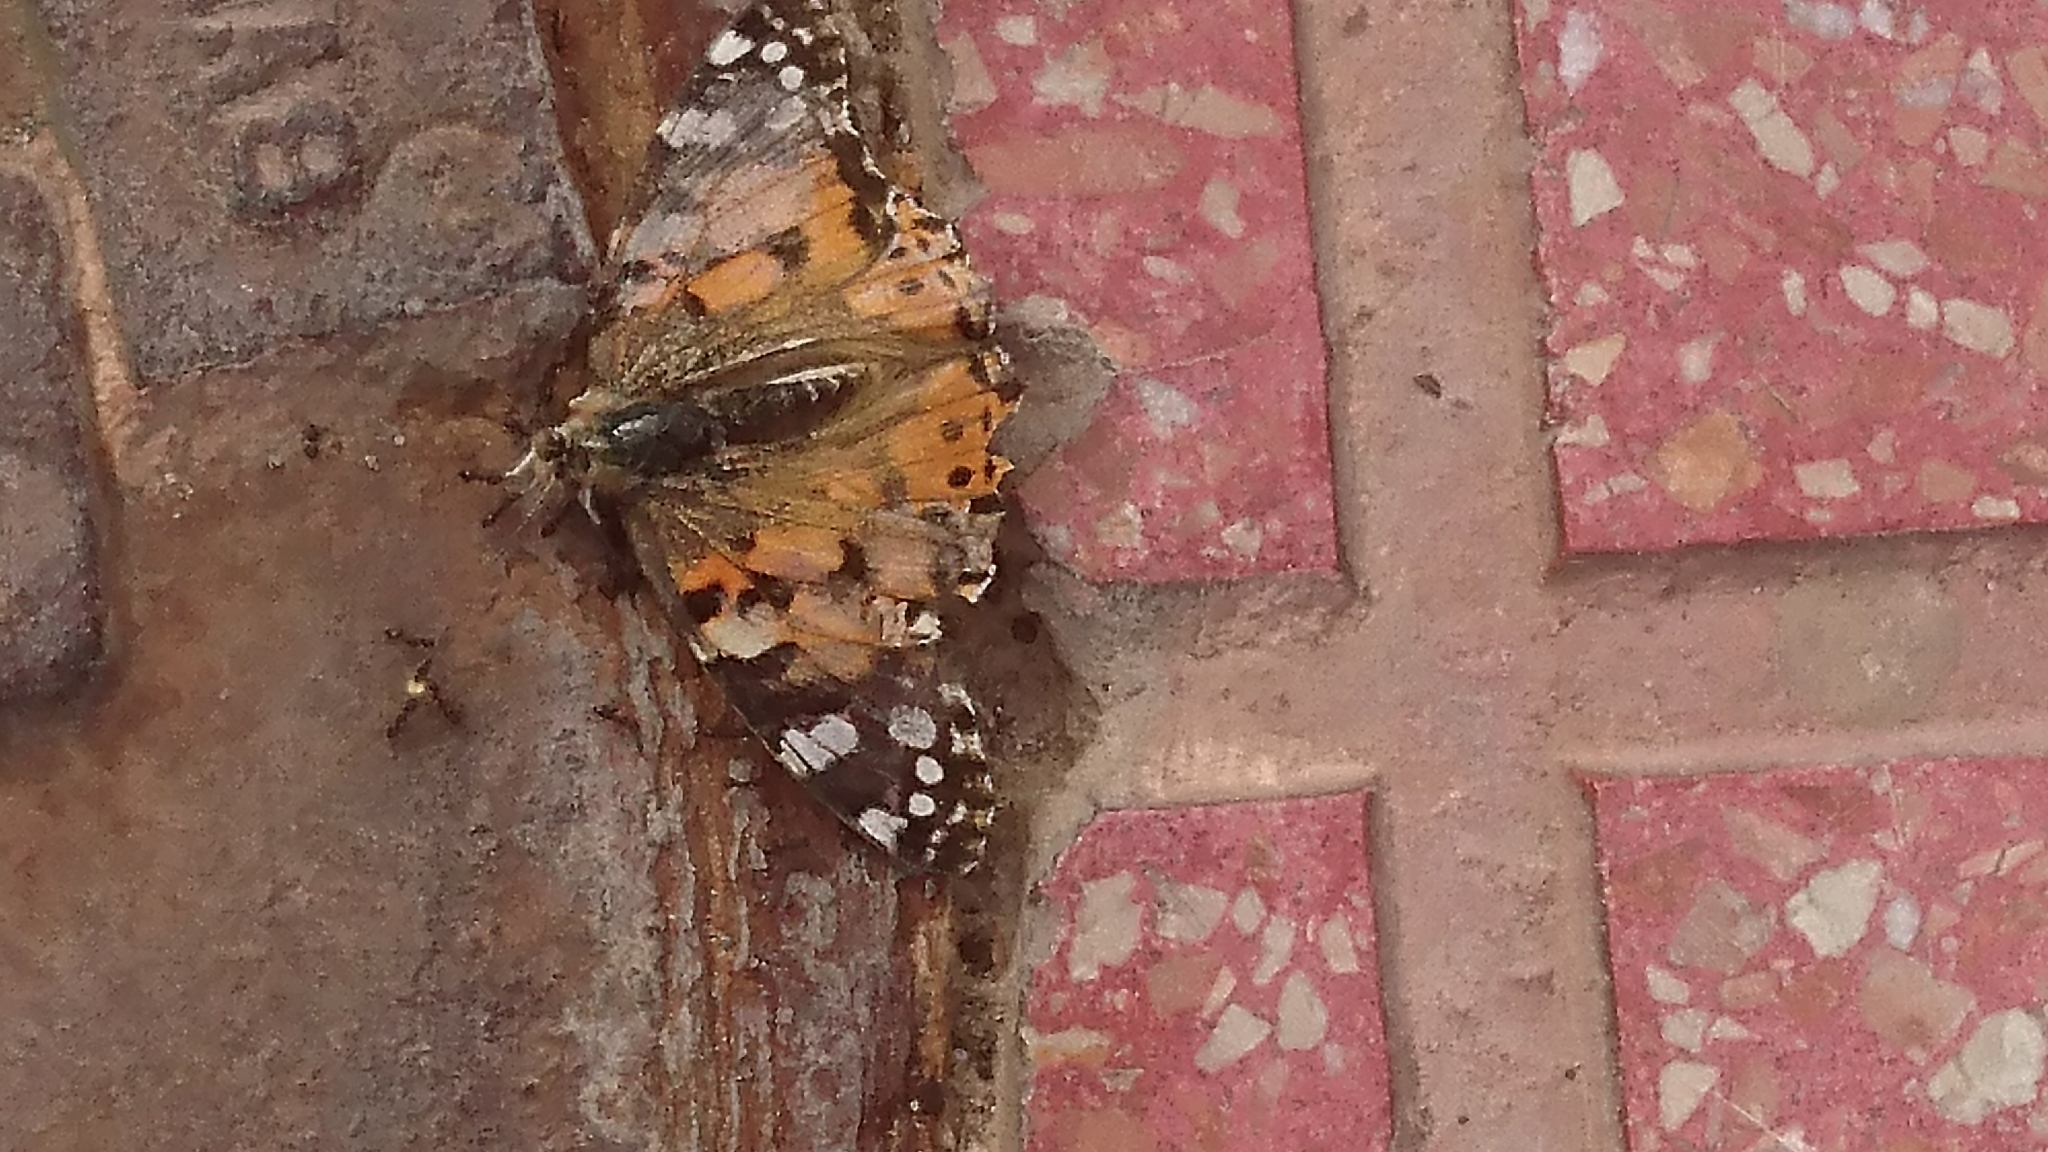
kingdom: Animalia
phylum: Arthropoda
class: Insecta
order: Lepidoptera
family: Nymphalidae
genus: Vanessa
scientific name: Vanessa cardui
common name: Painted lady
